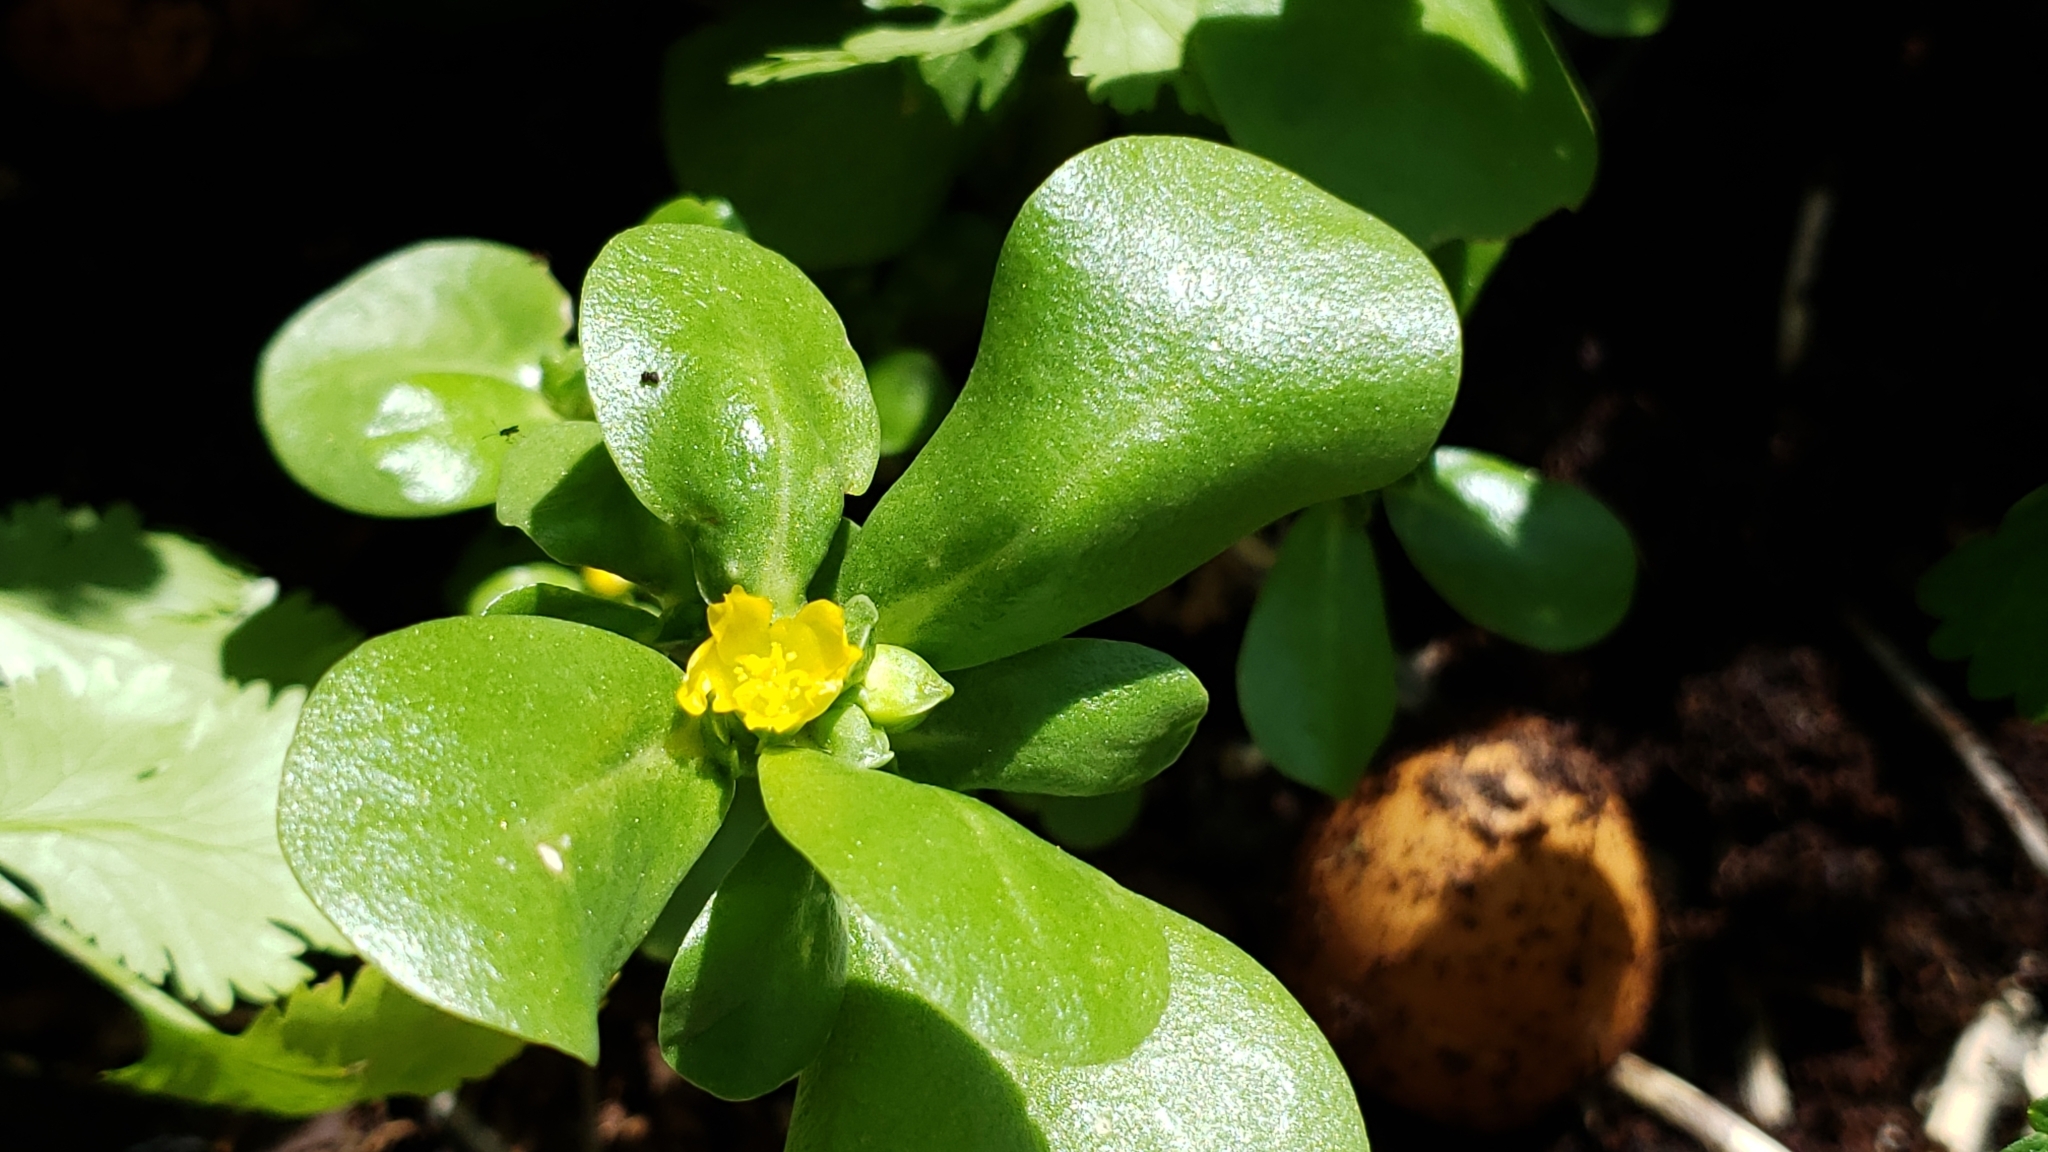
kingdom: Plantae
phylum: Tracheophyta
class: Magnoliopsida
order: Caryophyllales
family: Portulacaceae
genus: Portulaca
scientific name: Portulaca oleracea
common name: Common purslane
